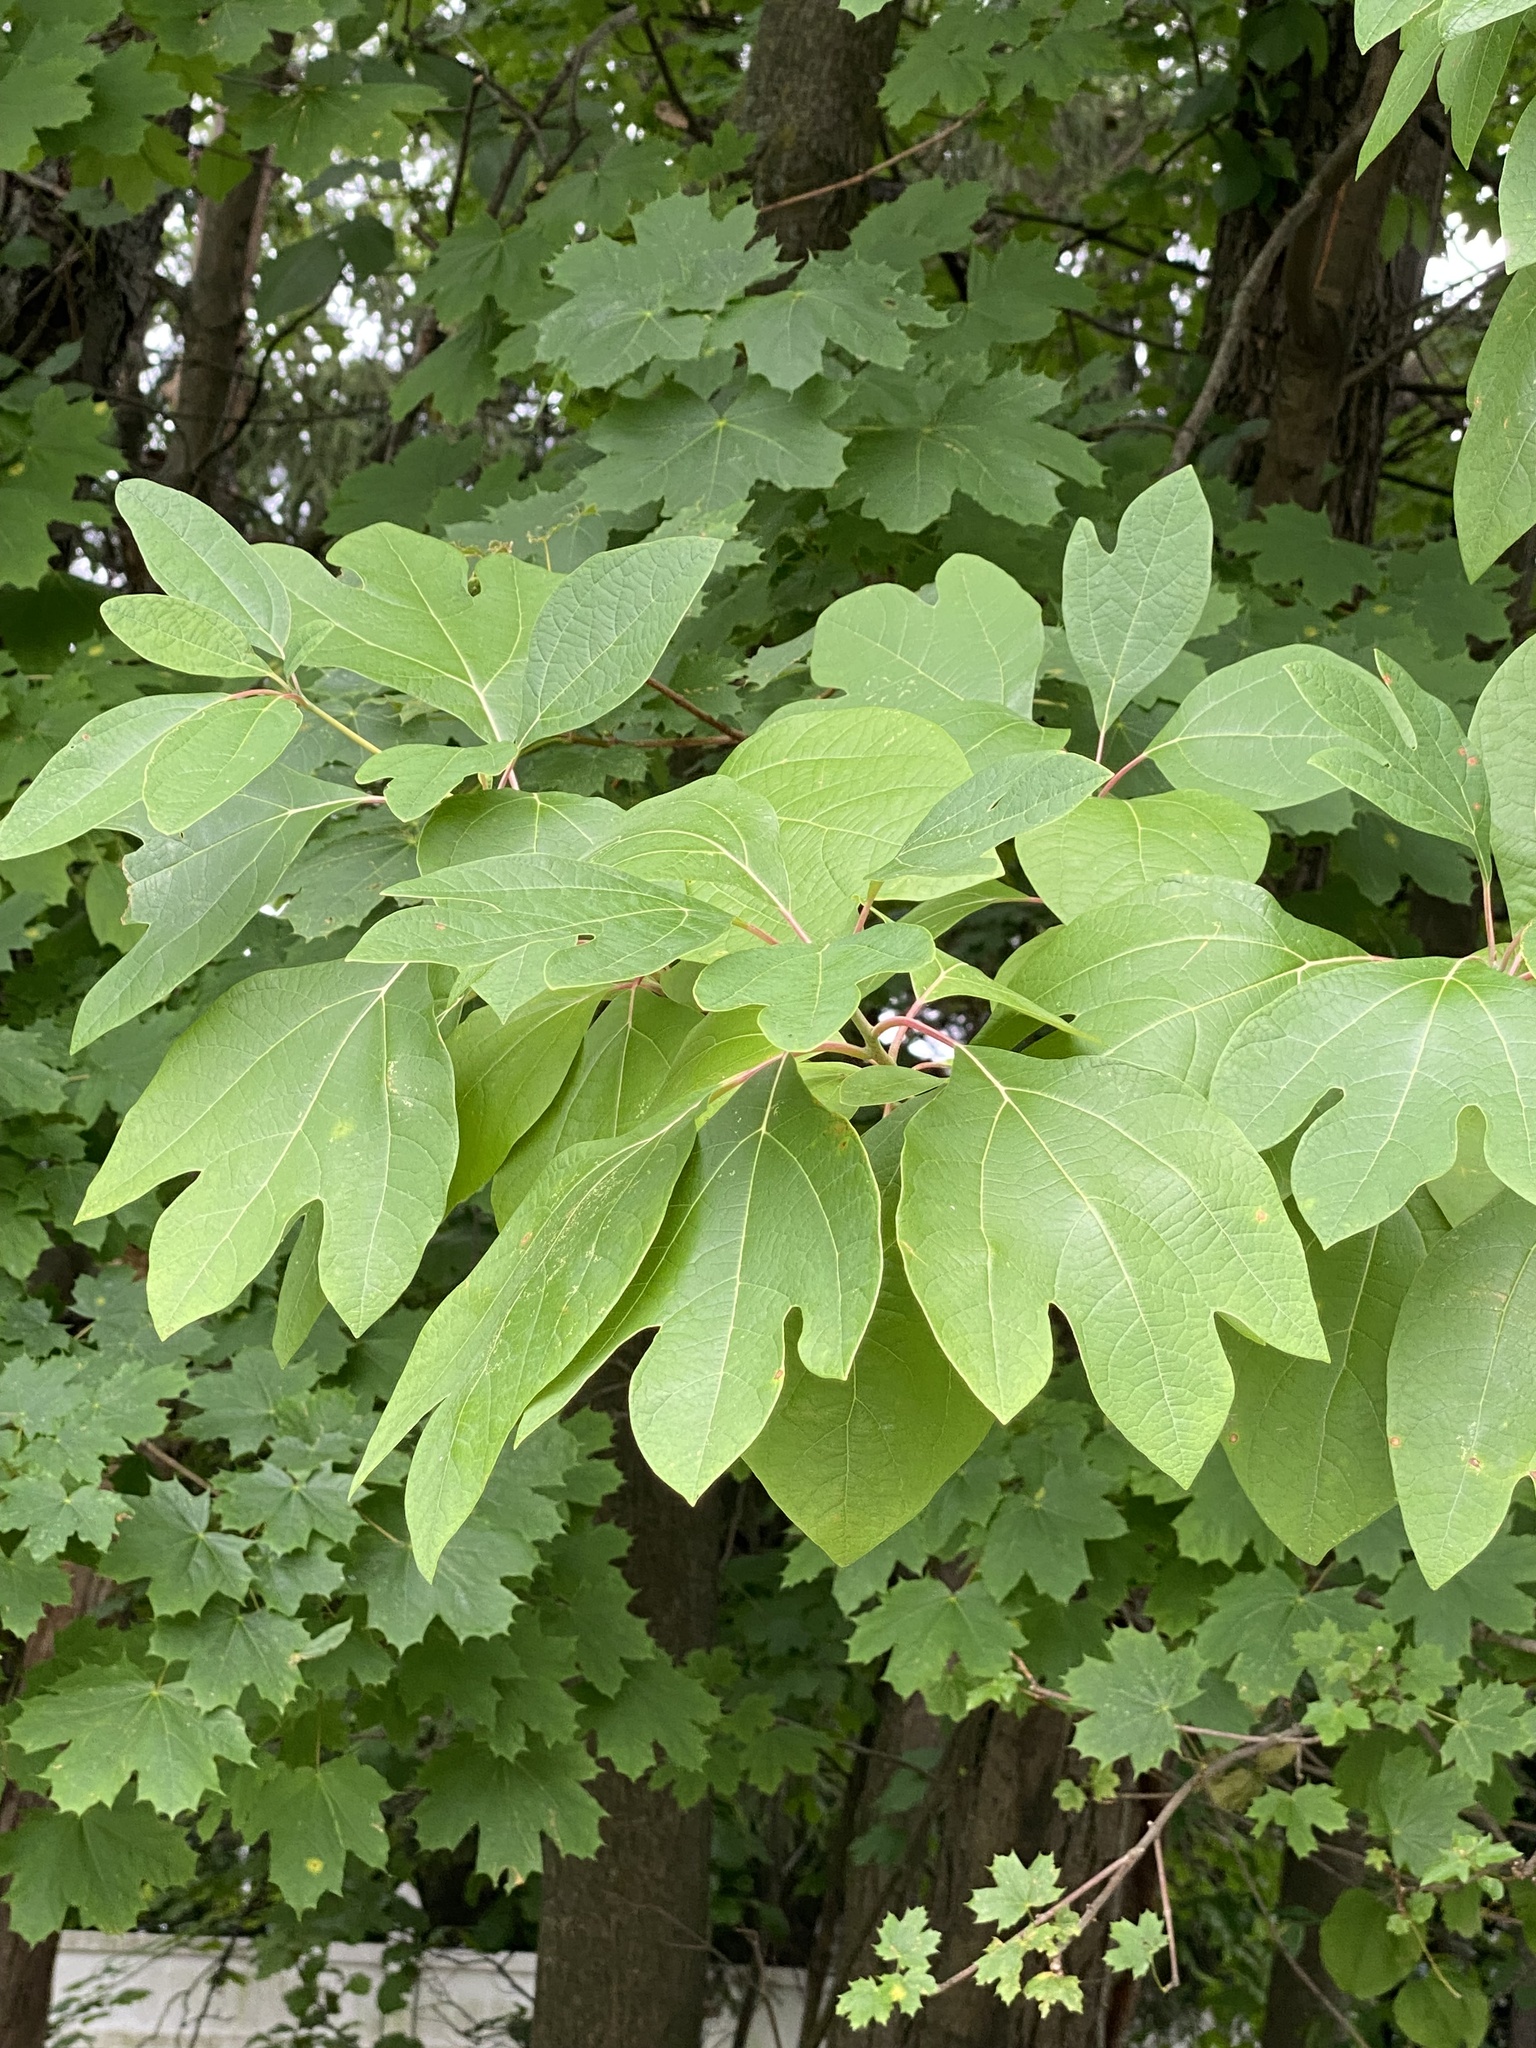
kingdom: Plantae
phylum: Tracheophyta
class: Magnoliopsida
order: Laurales
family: Lauraceae
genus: Sassafras
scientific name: Sassafras albidum
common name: Sassafras
